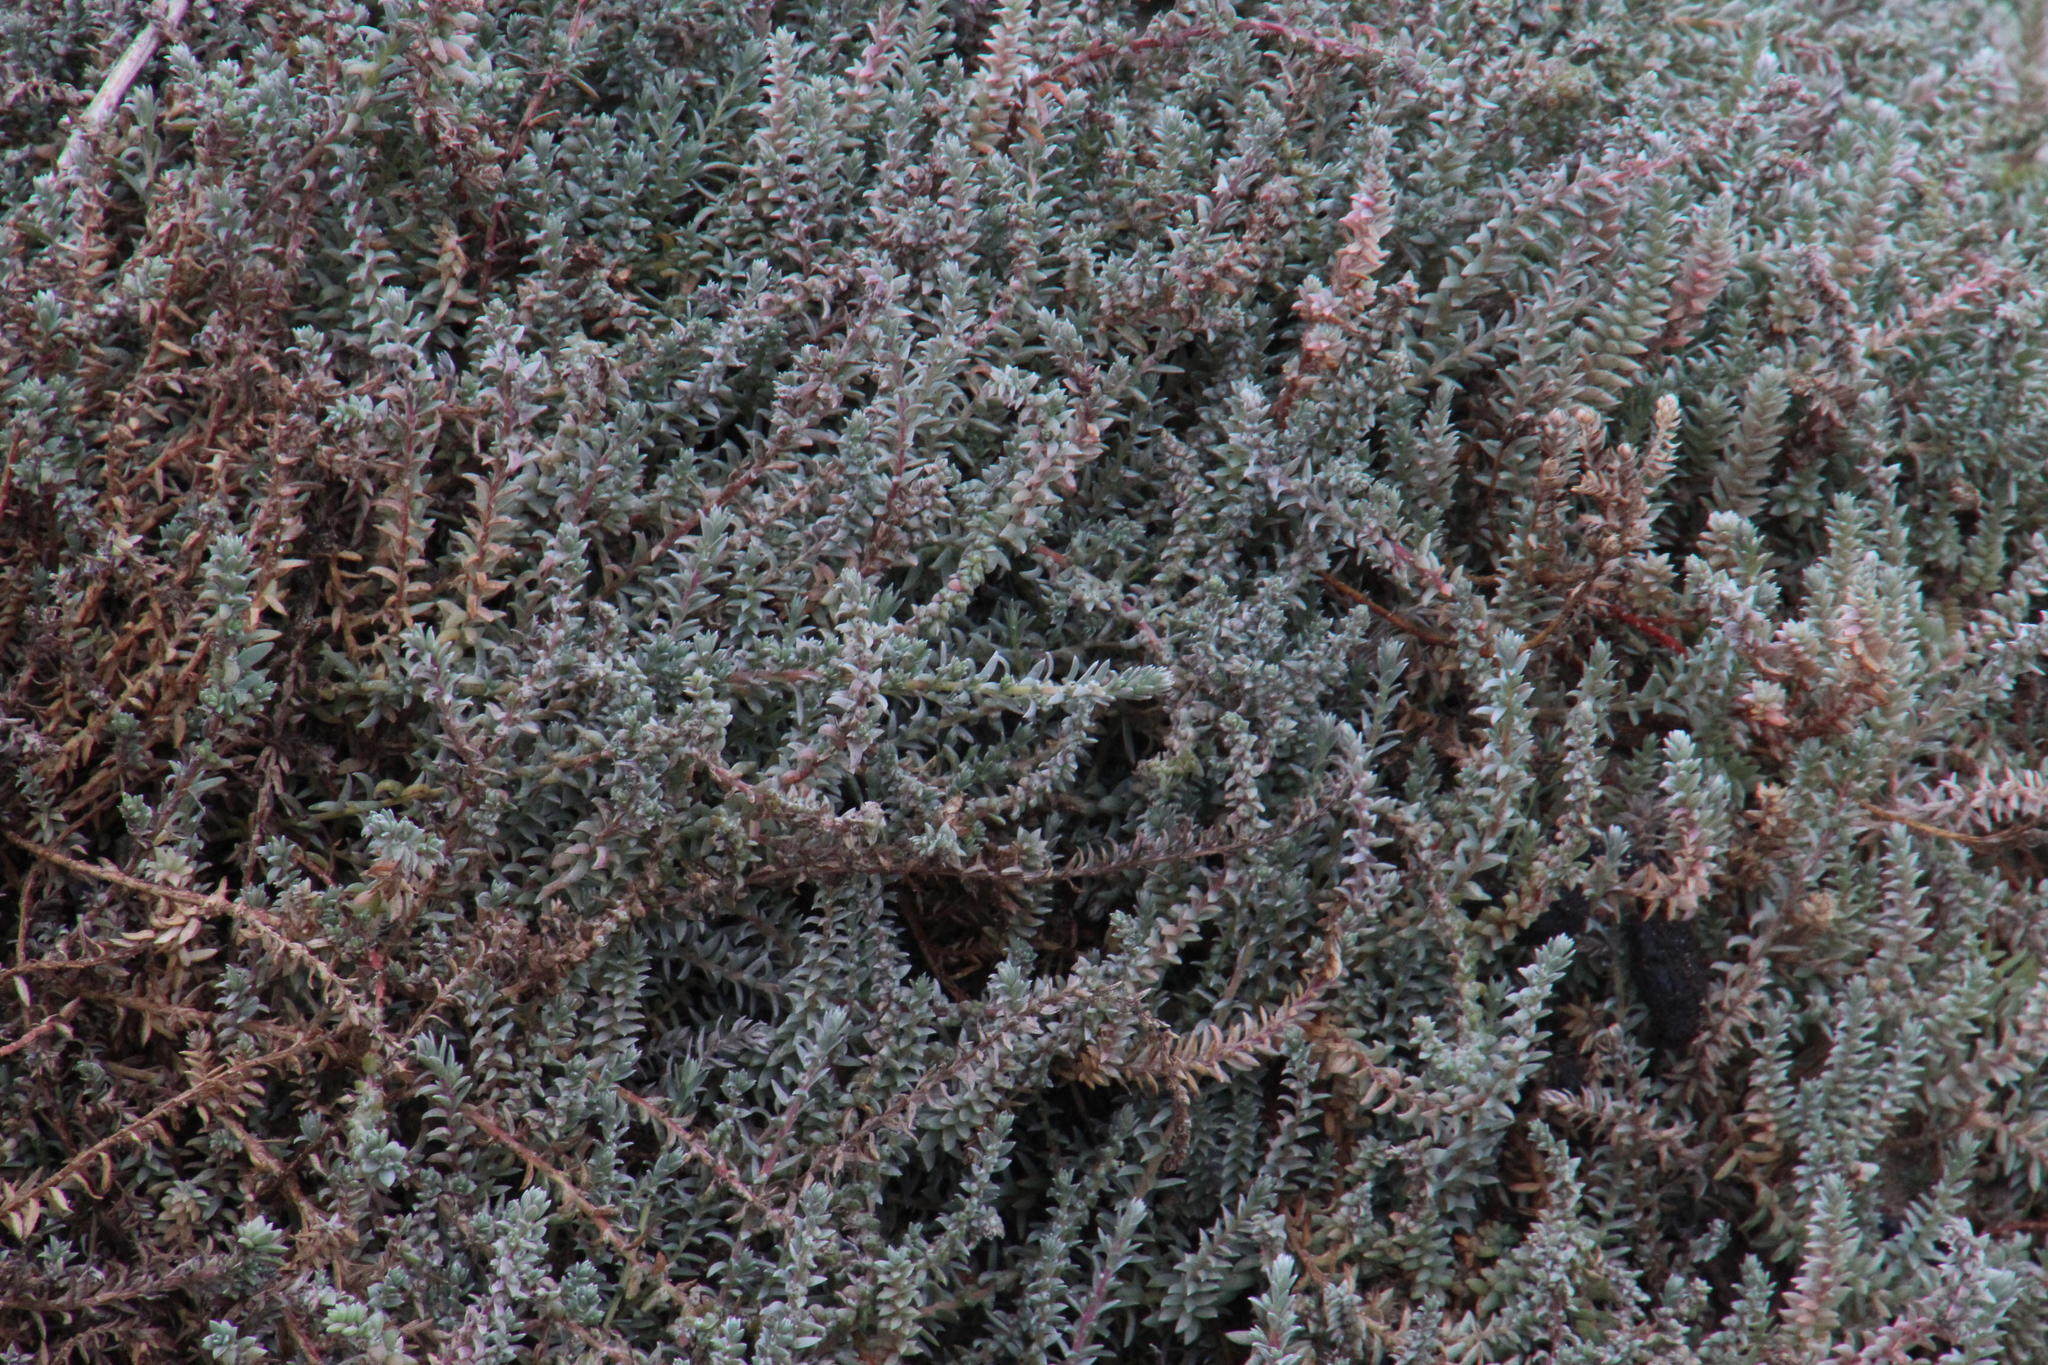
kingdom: Plantae
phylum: Tracheophyta
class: Magnoliopsida
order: Caryophyllales
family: Amaranthaceae
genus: Chenolea
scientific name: Chenolea diffusa
